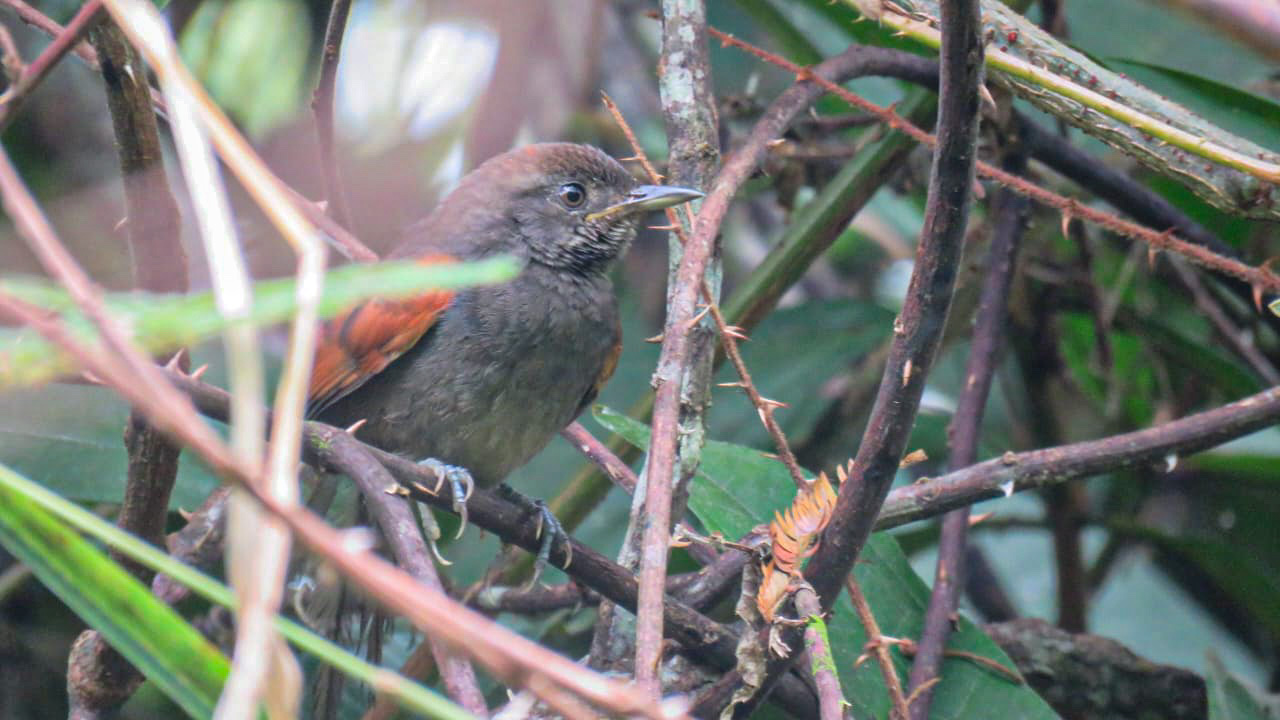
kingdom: Animalia
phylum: Chordata
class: Aves
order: Passeriformes
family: Furnariidae
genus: Synallaxis
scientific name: Synallaxis brachyura
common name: Slaty spinetail
